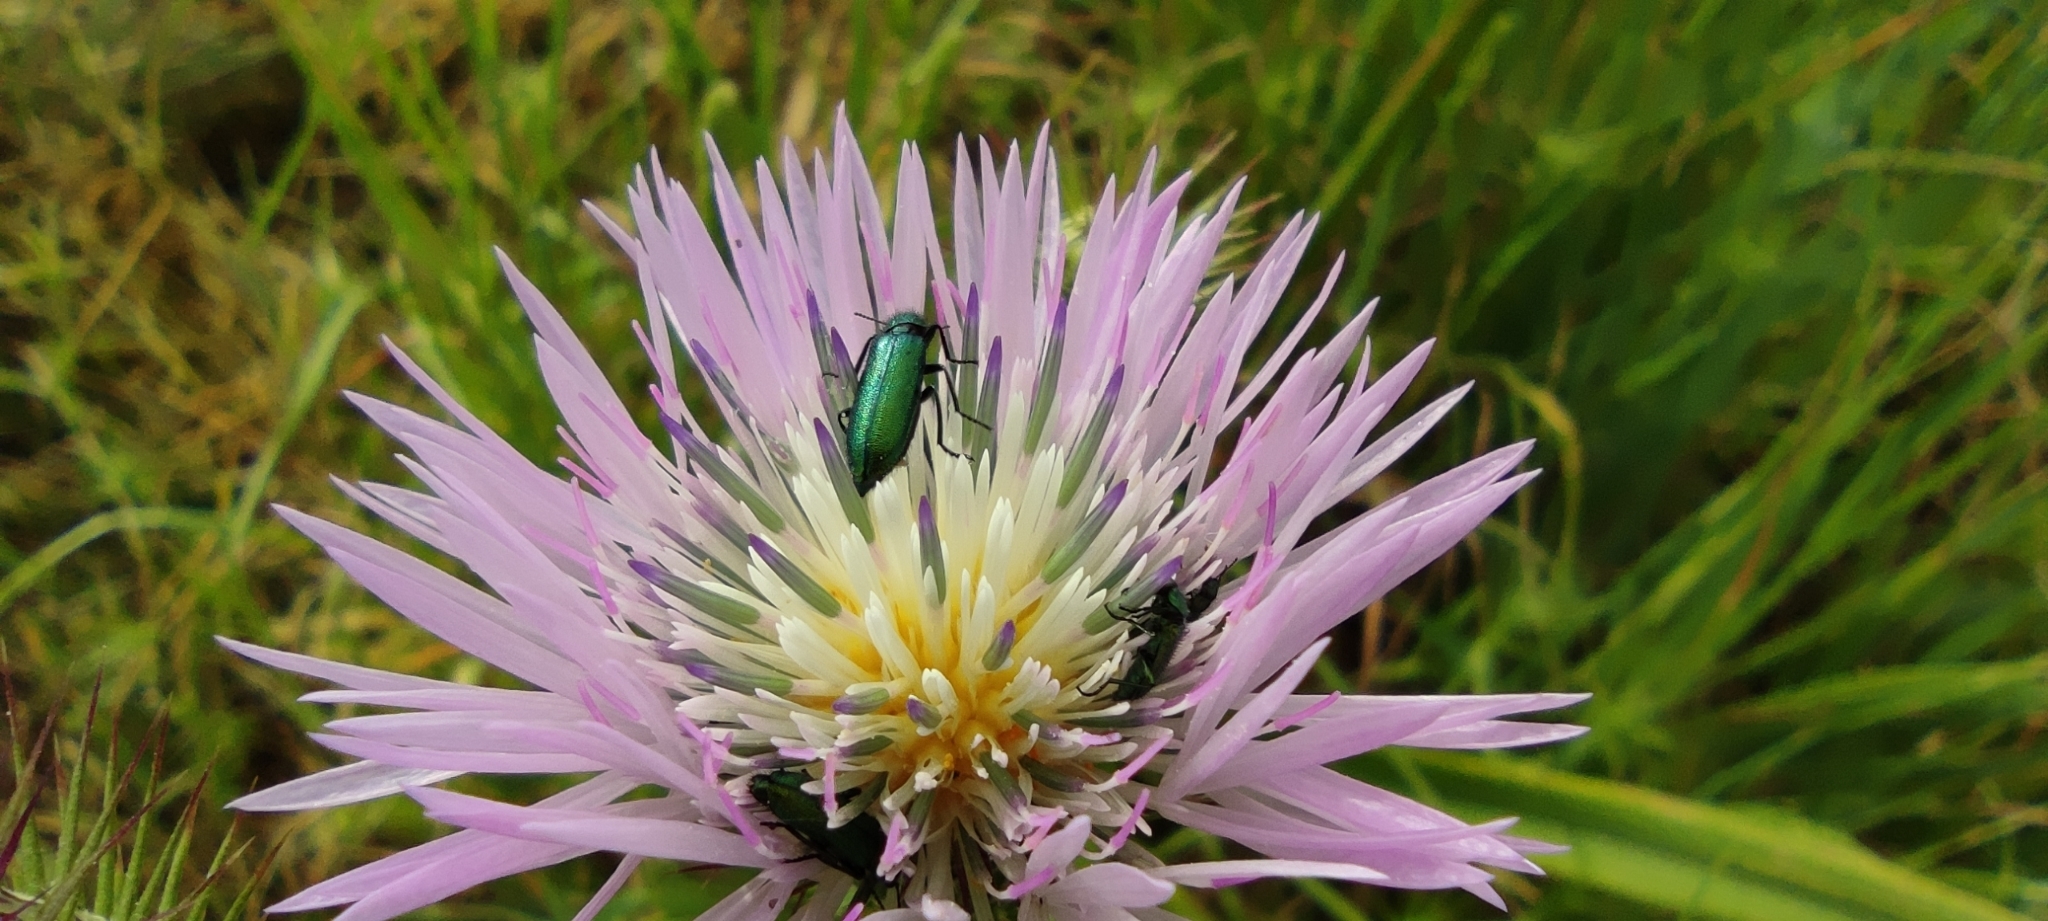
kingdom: Animalia
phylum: Arthropoda
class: Insecta
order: Coleoptera
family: Dasytidae
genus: Psilothrix
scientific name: Psilothrix viridicoerulea
